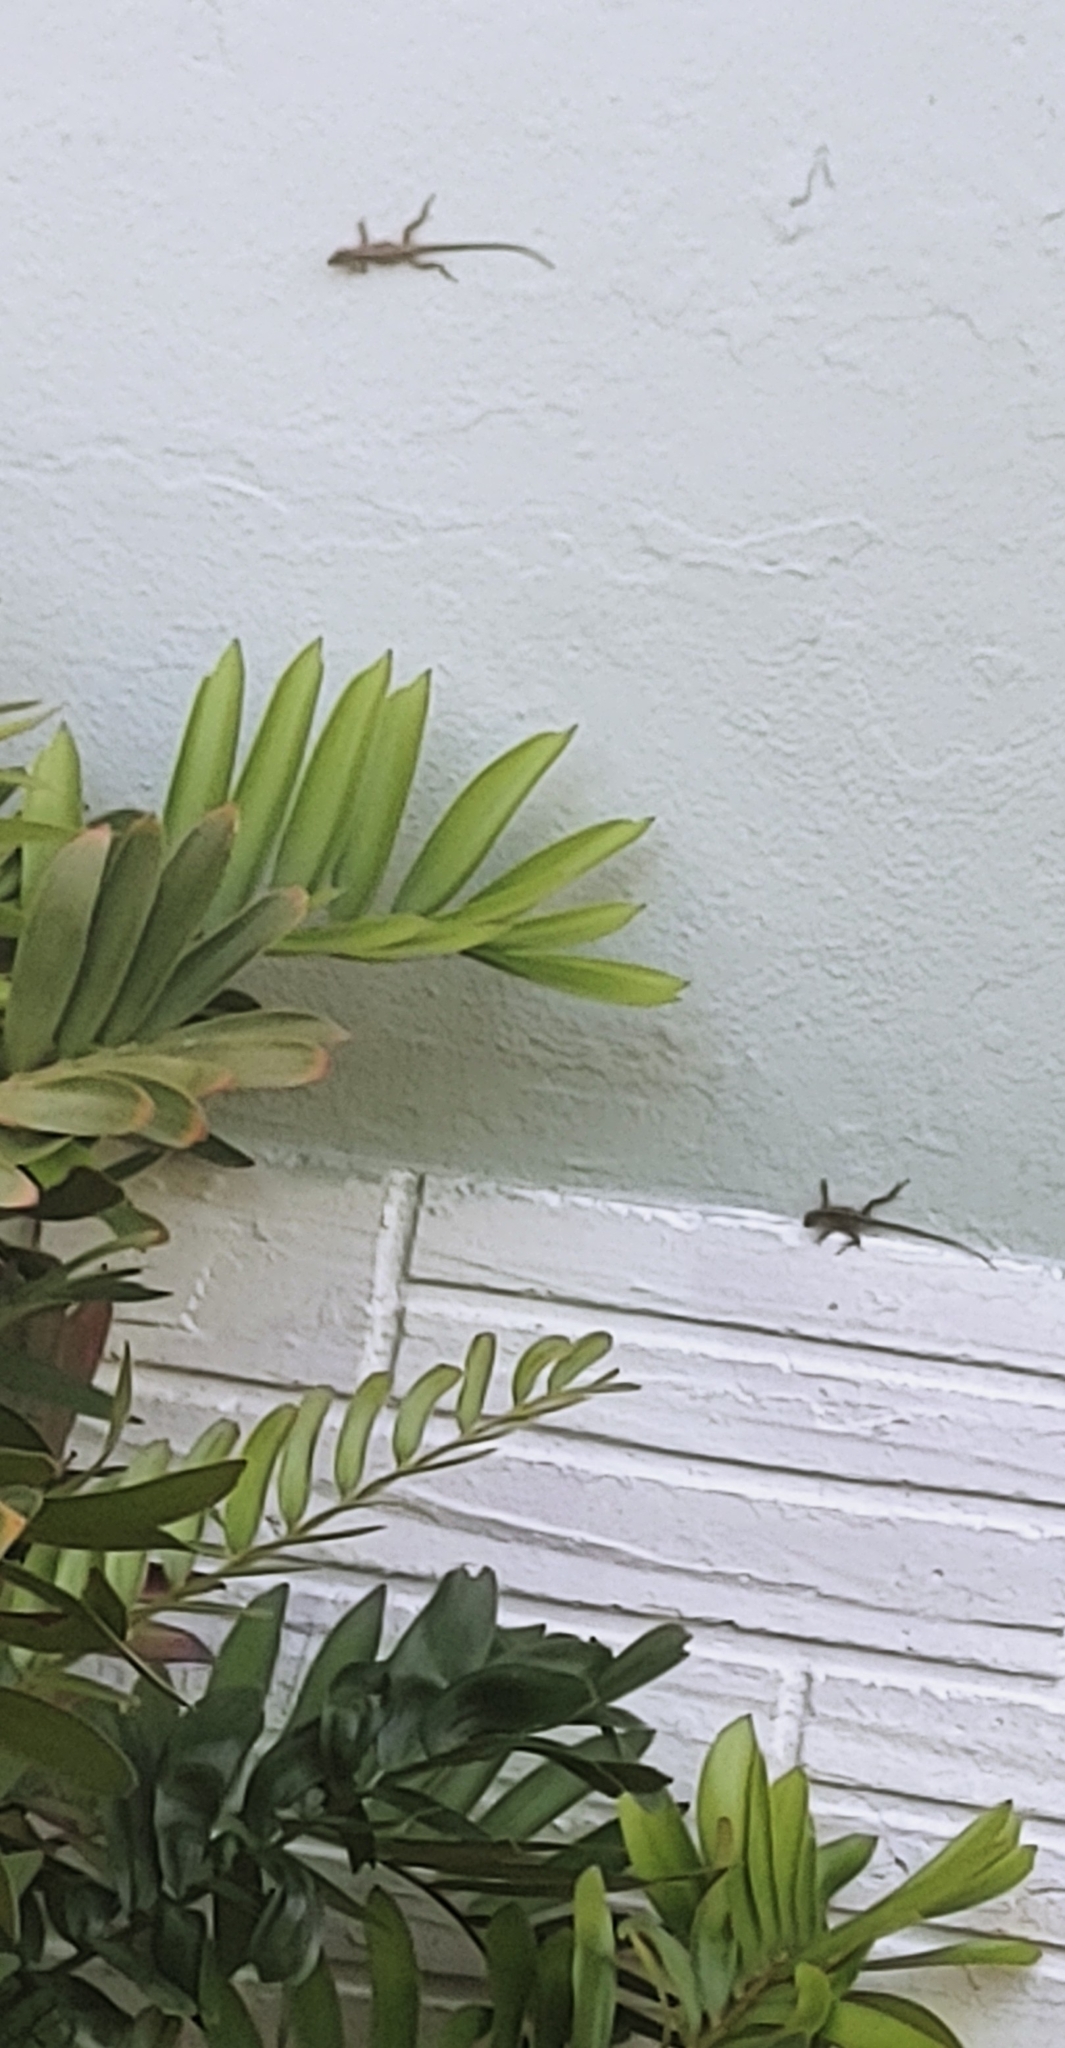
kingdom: Animalia
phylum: Chordata
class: Squamata
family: Dactyloidae
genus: Anolis
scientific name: Anolis sagrei
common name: Brown anole
